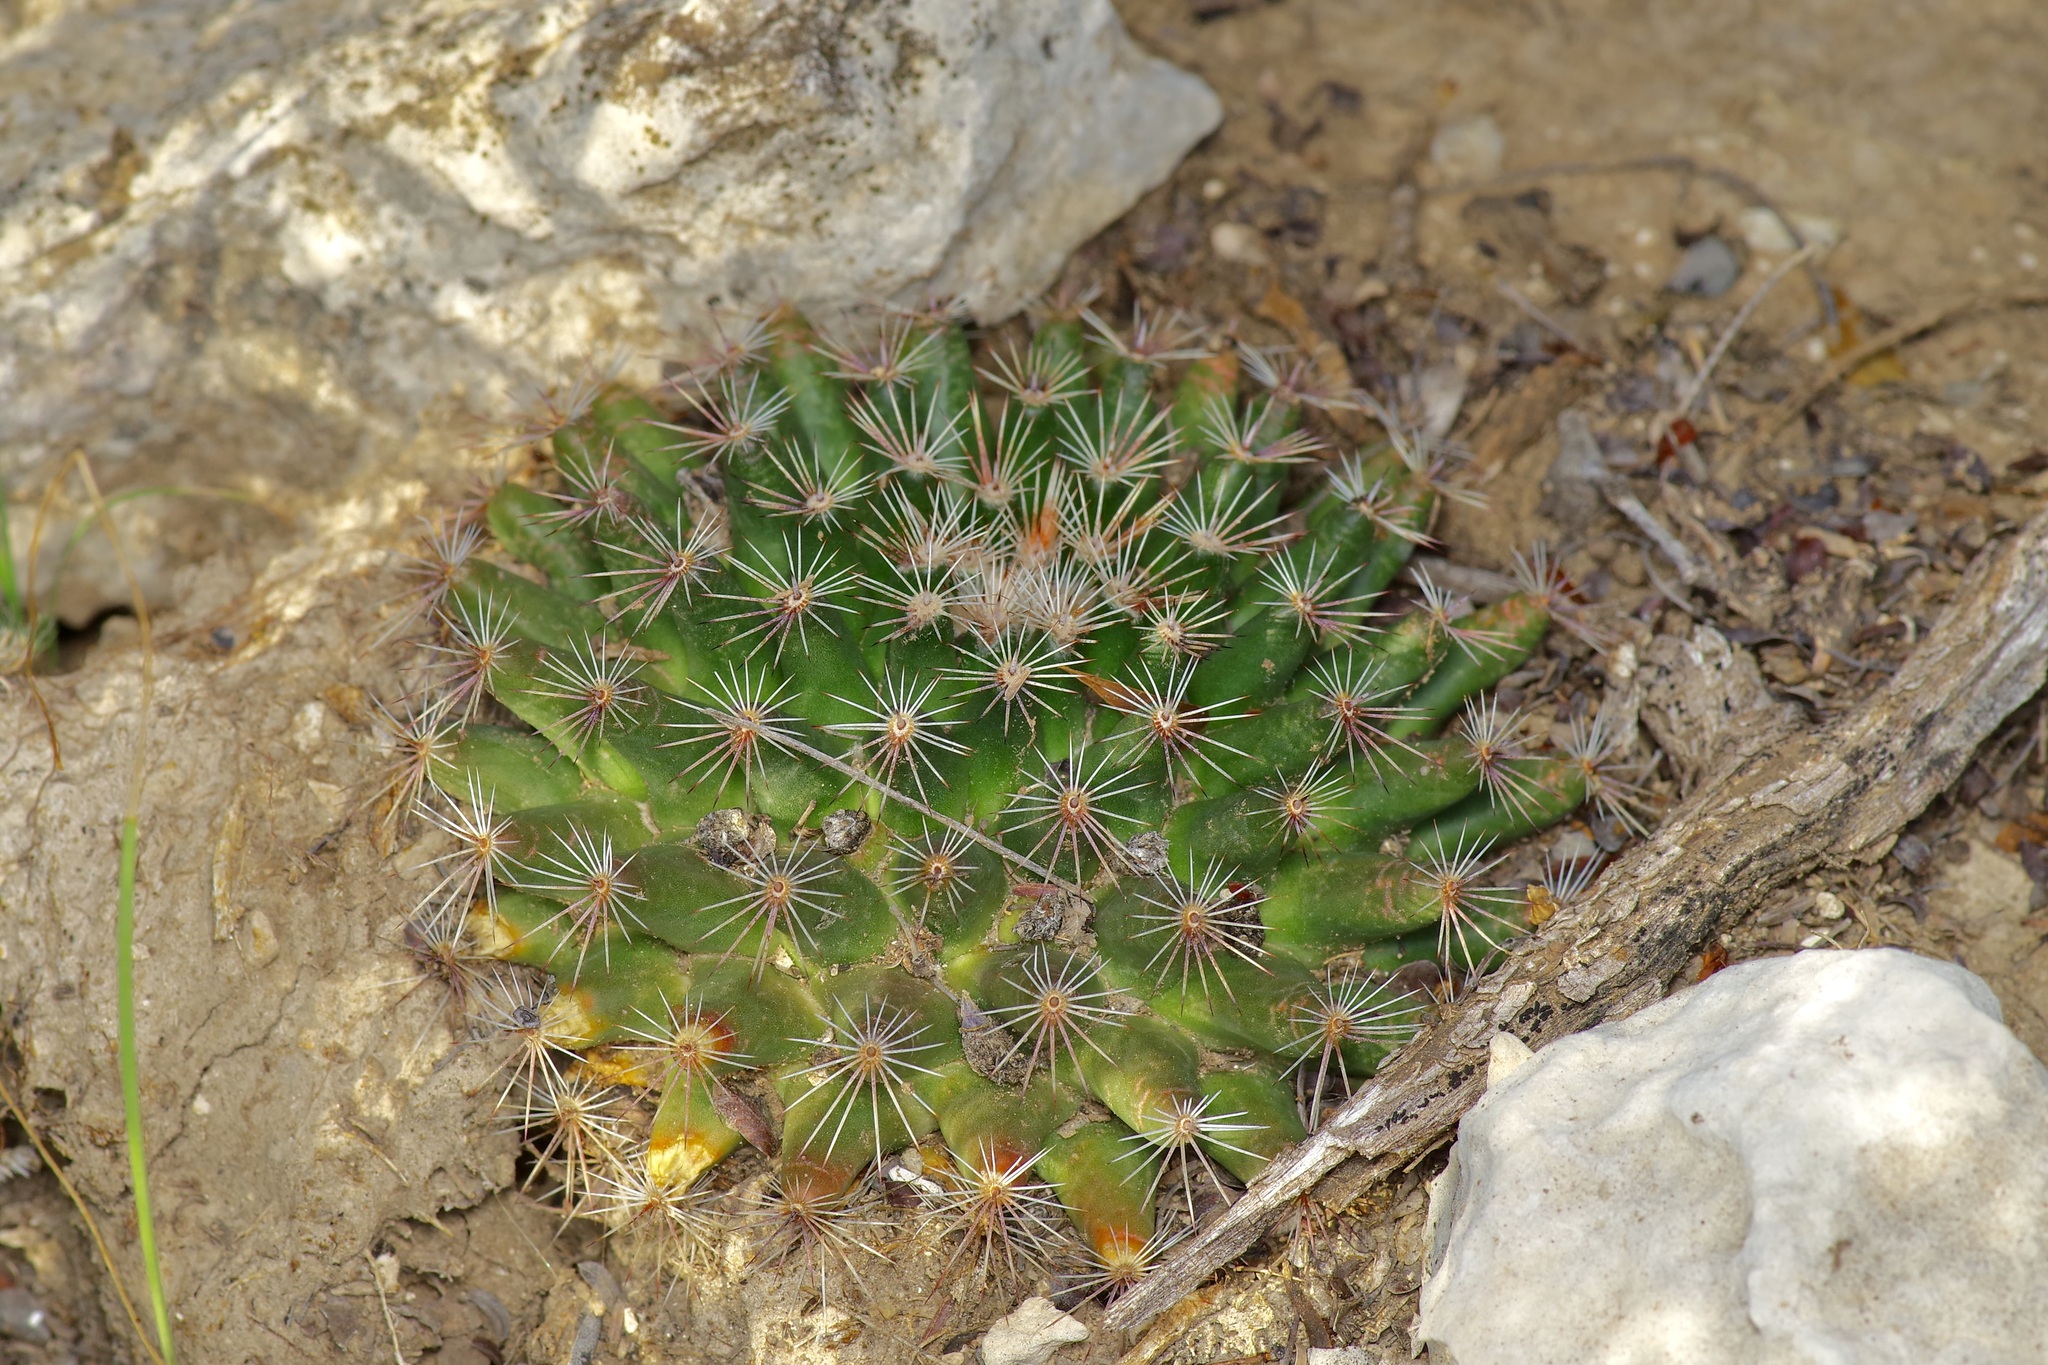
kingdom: Plantae
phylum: Tracheophyta
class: Magnoliopsida
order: Caryophyllales
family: Cactaceae
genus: Mammillaria
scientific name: Mammillaria heyderi
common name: Little nipple cactus
